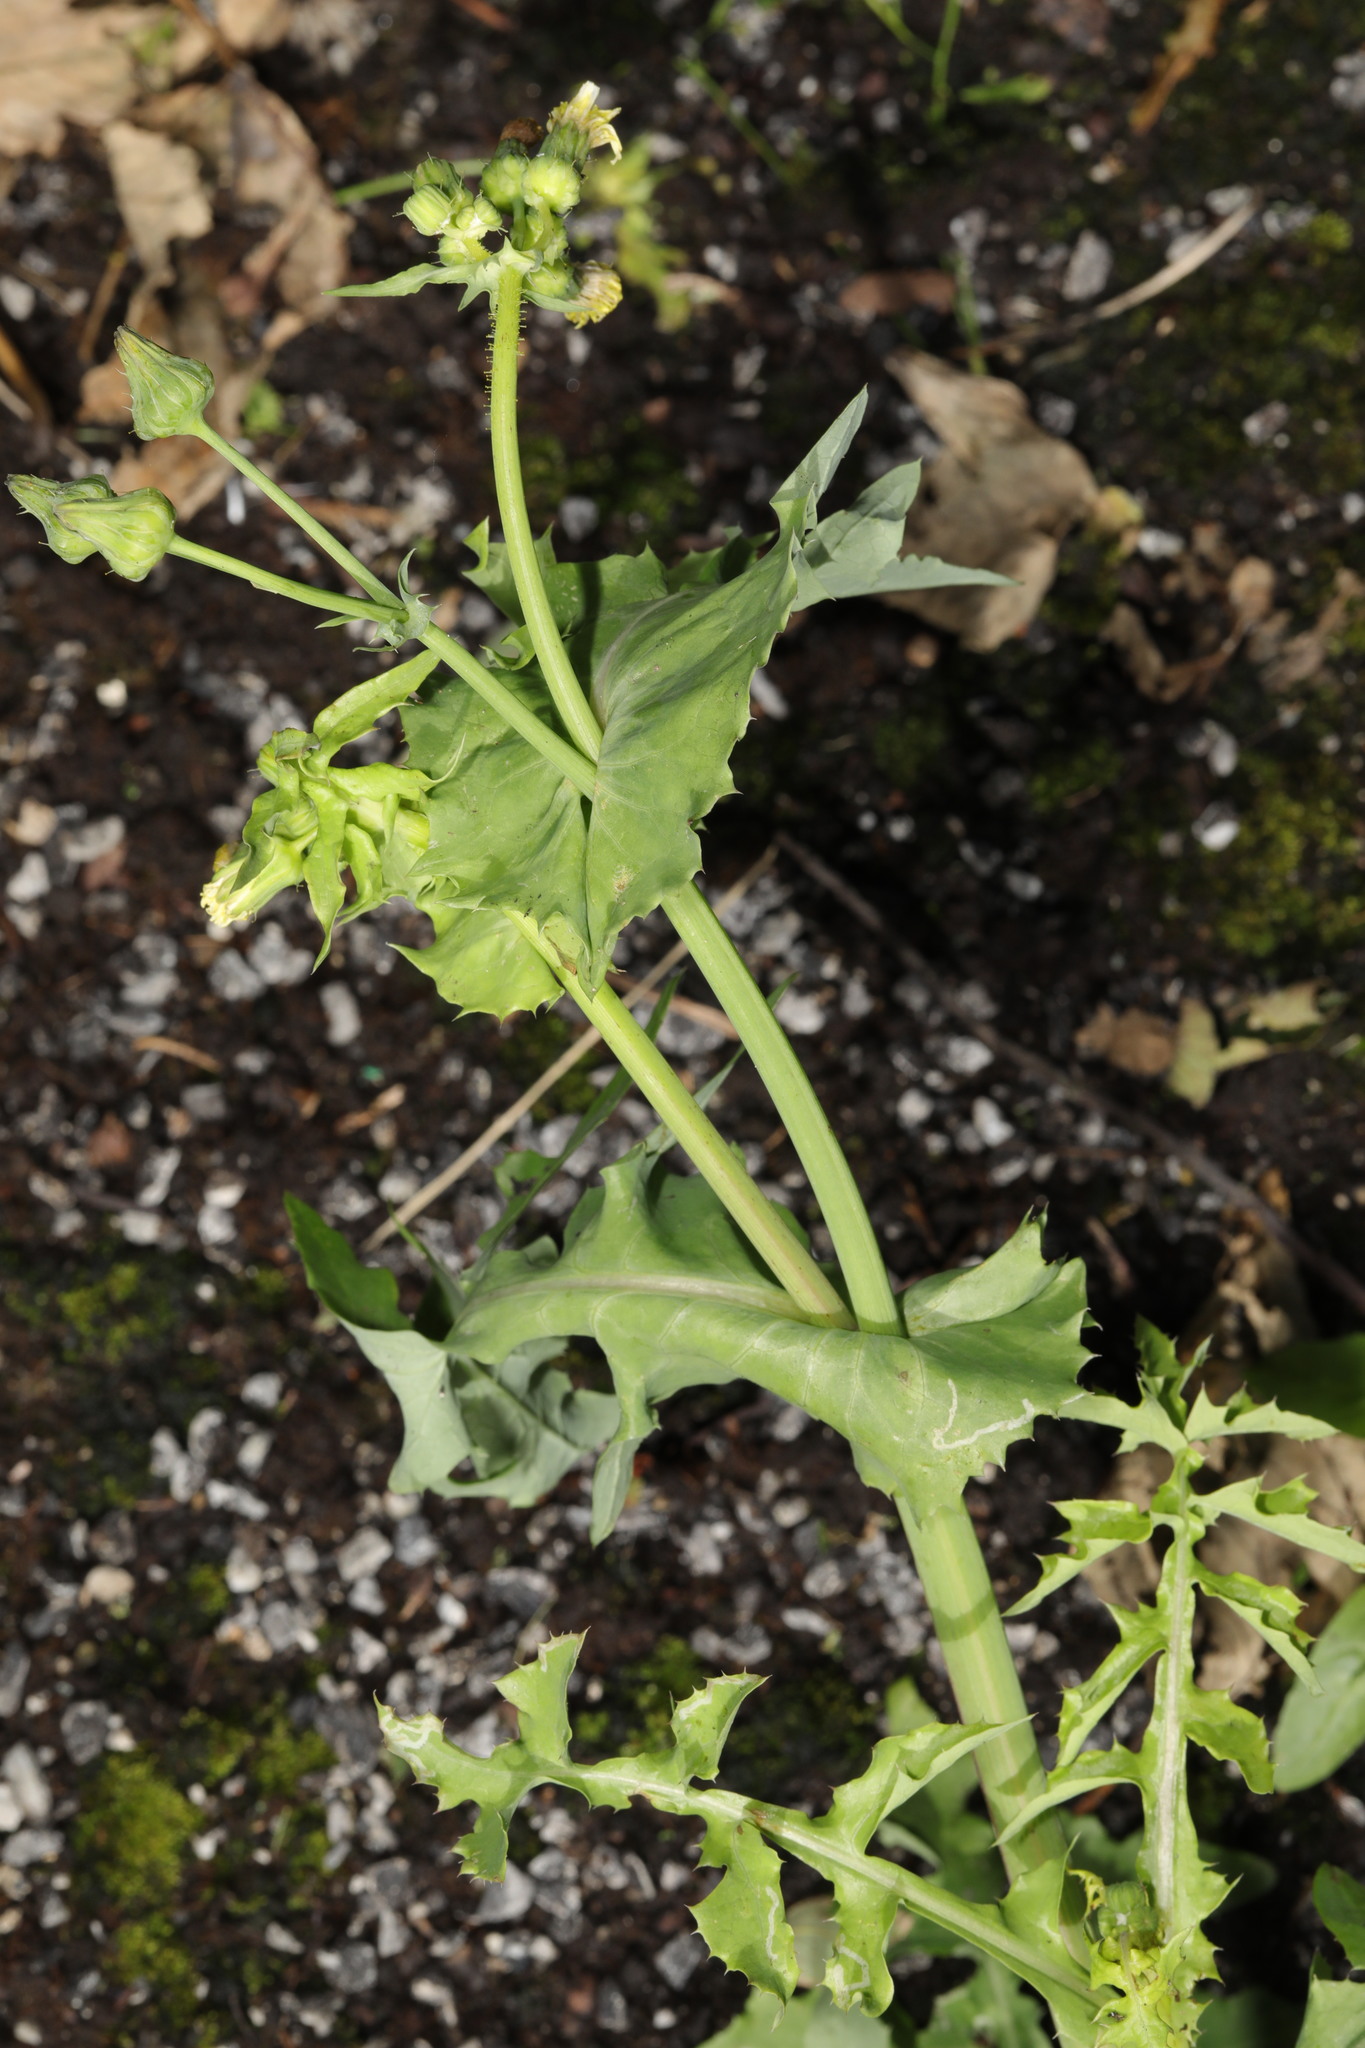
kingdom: Plantae
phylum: Tracheophyta
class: Magnoliopsida
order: Asterales
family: Asteraceae
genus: Sonchus
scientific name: Sonchus oleraceus
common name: Common sowthistle
